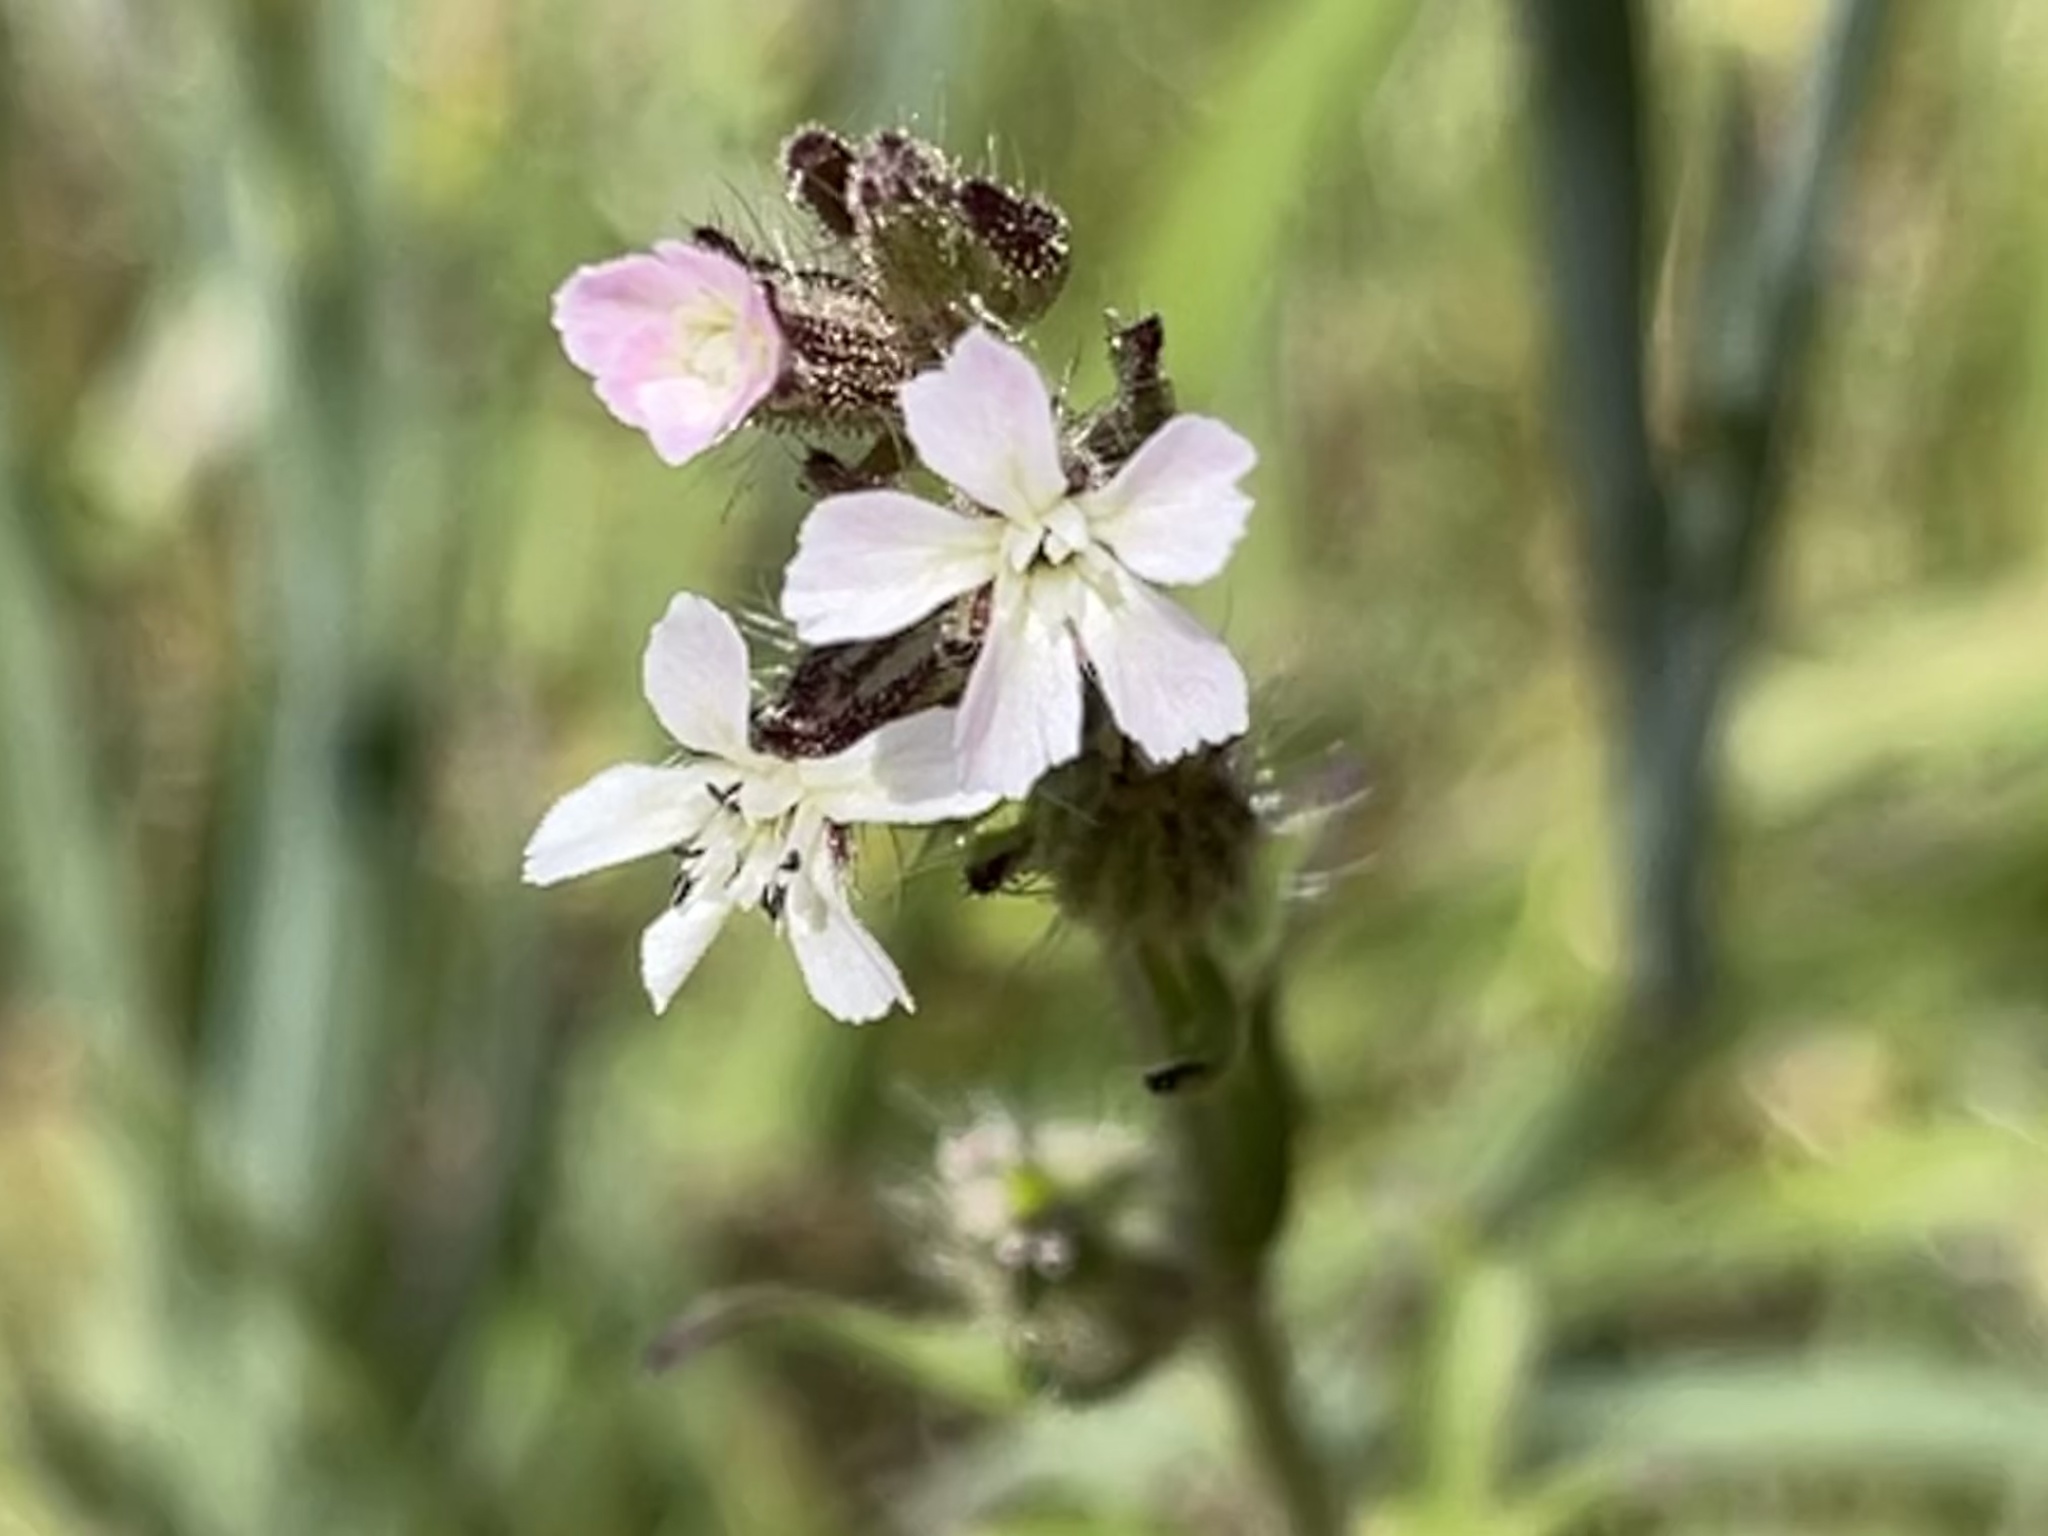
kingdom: Plantae
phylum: Tracheophyta
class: Magnoliopsida
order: Caryophyllales
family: Caryophyllaceae
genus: Silene
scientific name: Silene gallica
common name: Small-flowered catchfly
